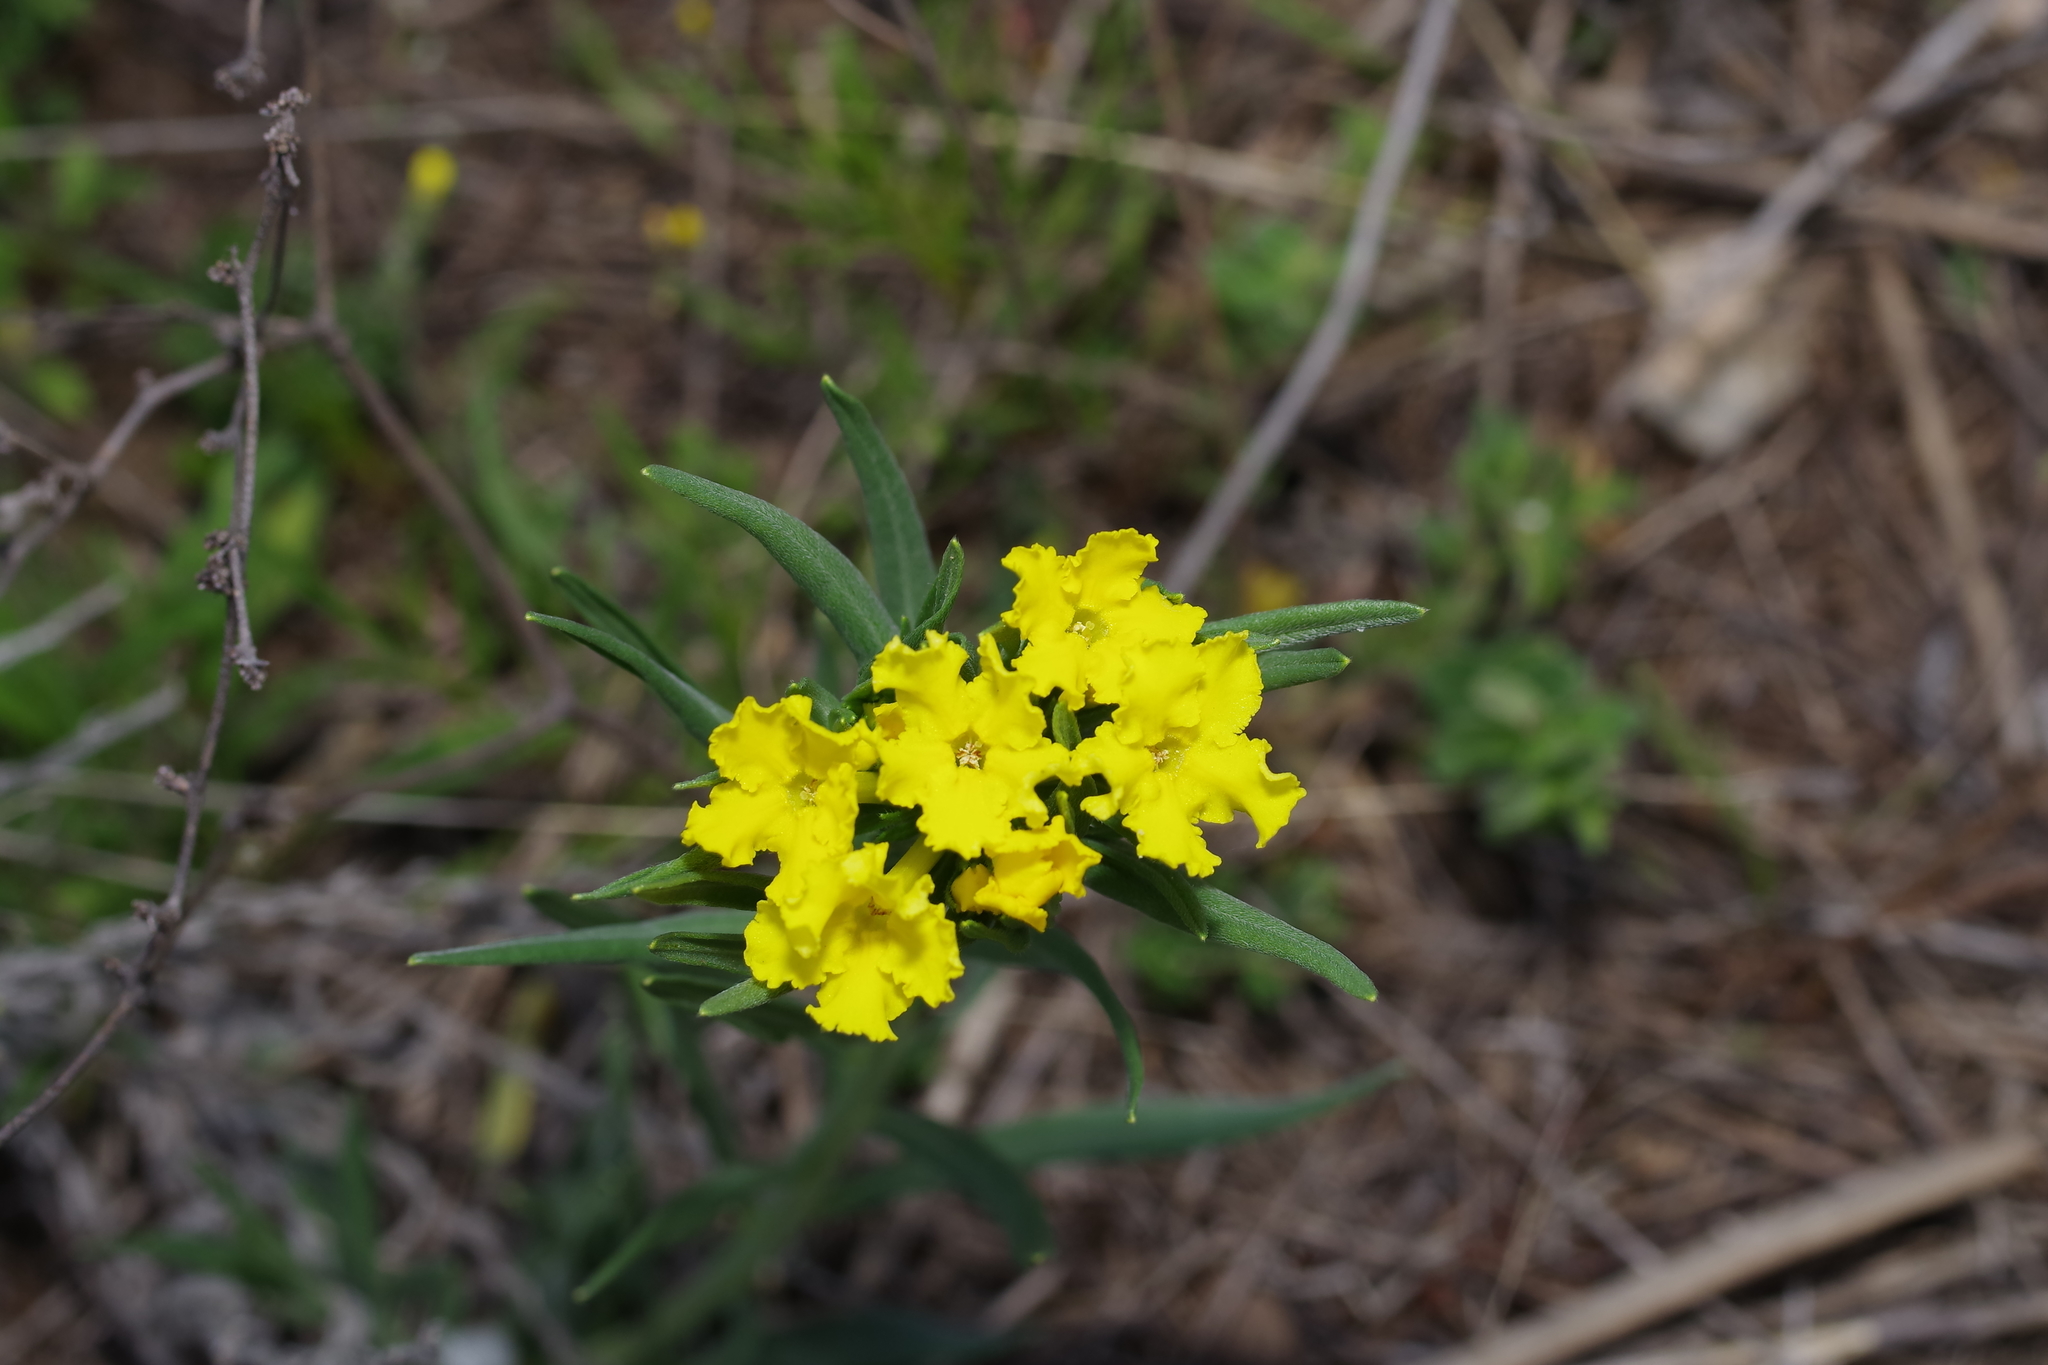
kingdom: Plantae
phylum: Tracheophyta
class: Magnoliopsida
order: Boraginales
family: Boraginaceae
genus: Lithospermum
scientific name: Lithospermum incisum
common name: Fringed gromwell
